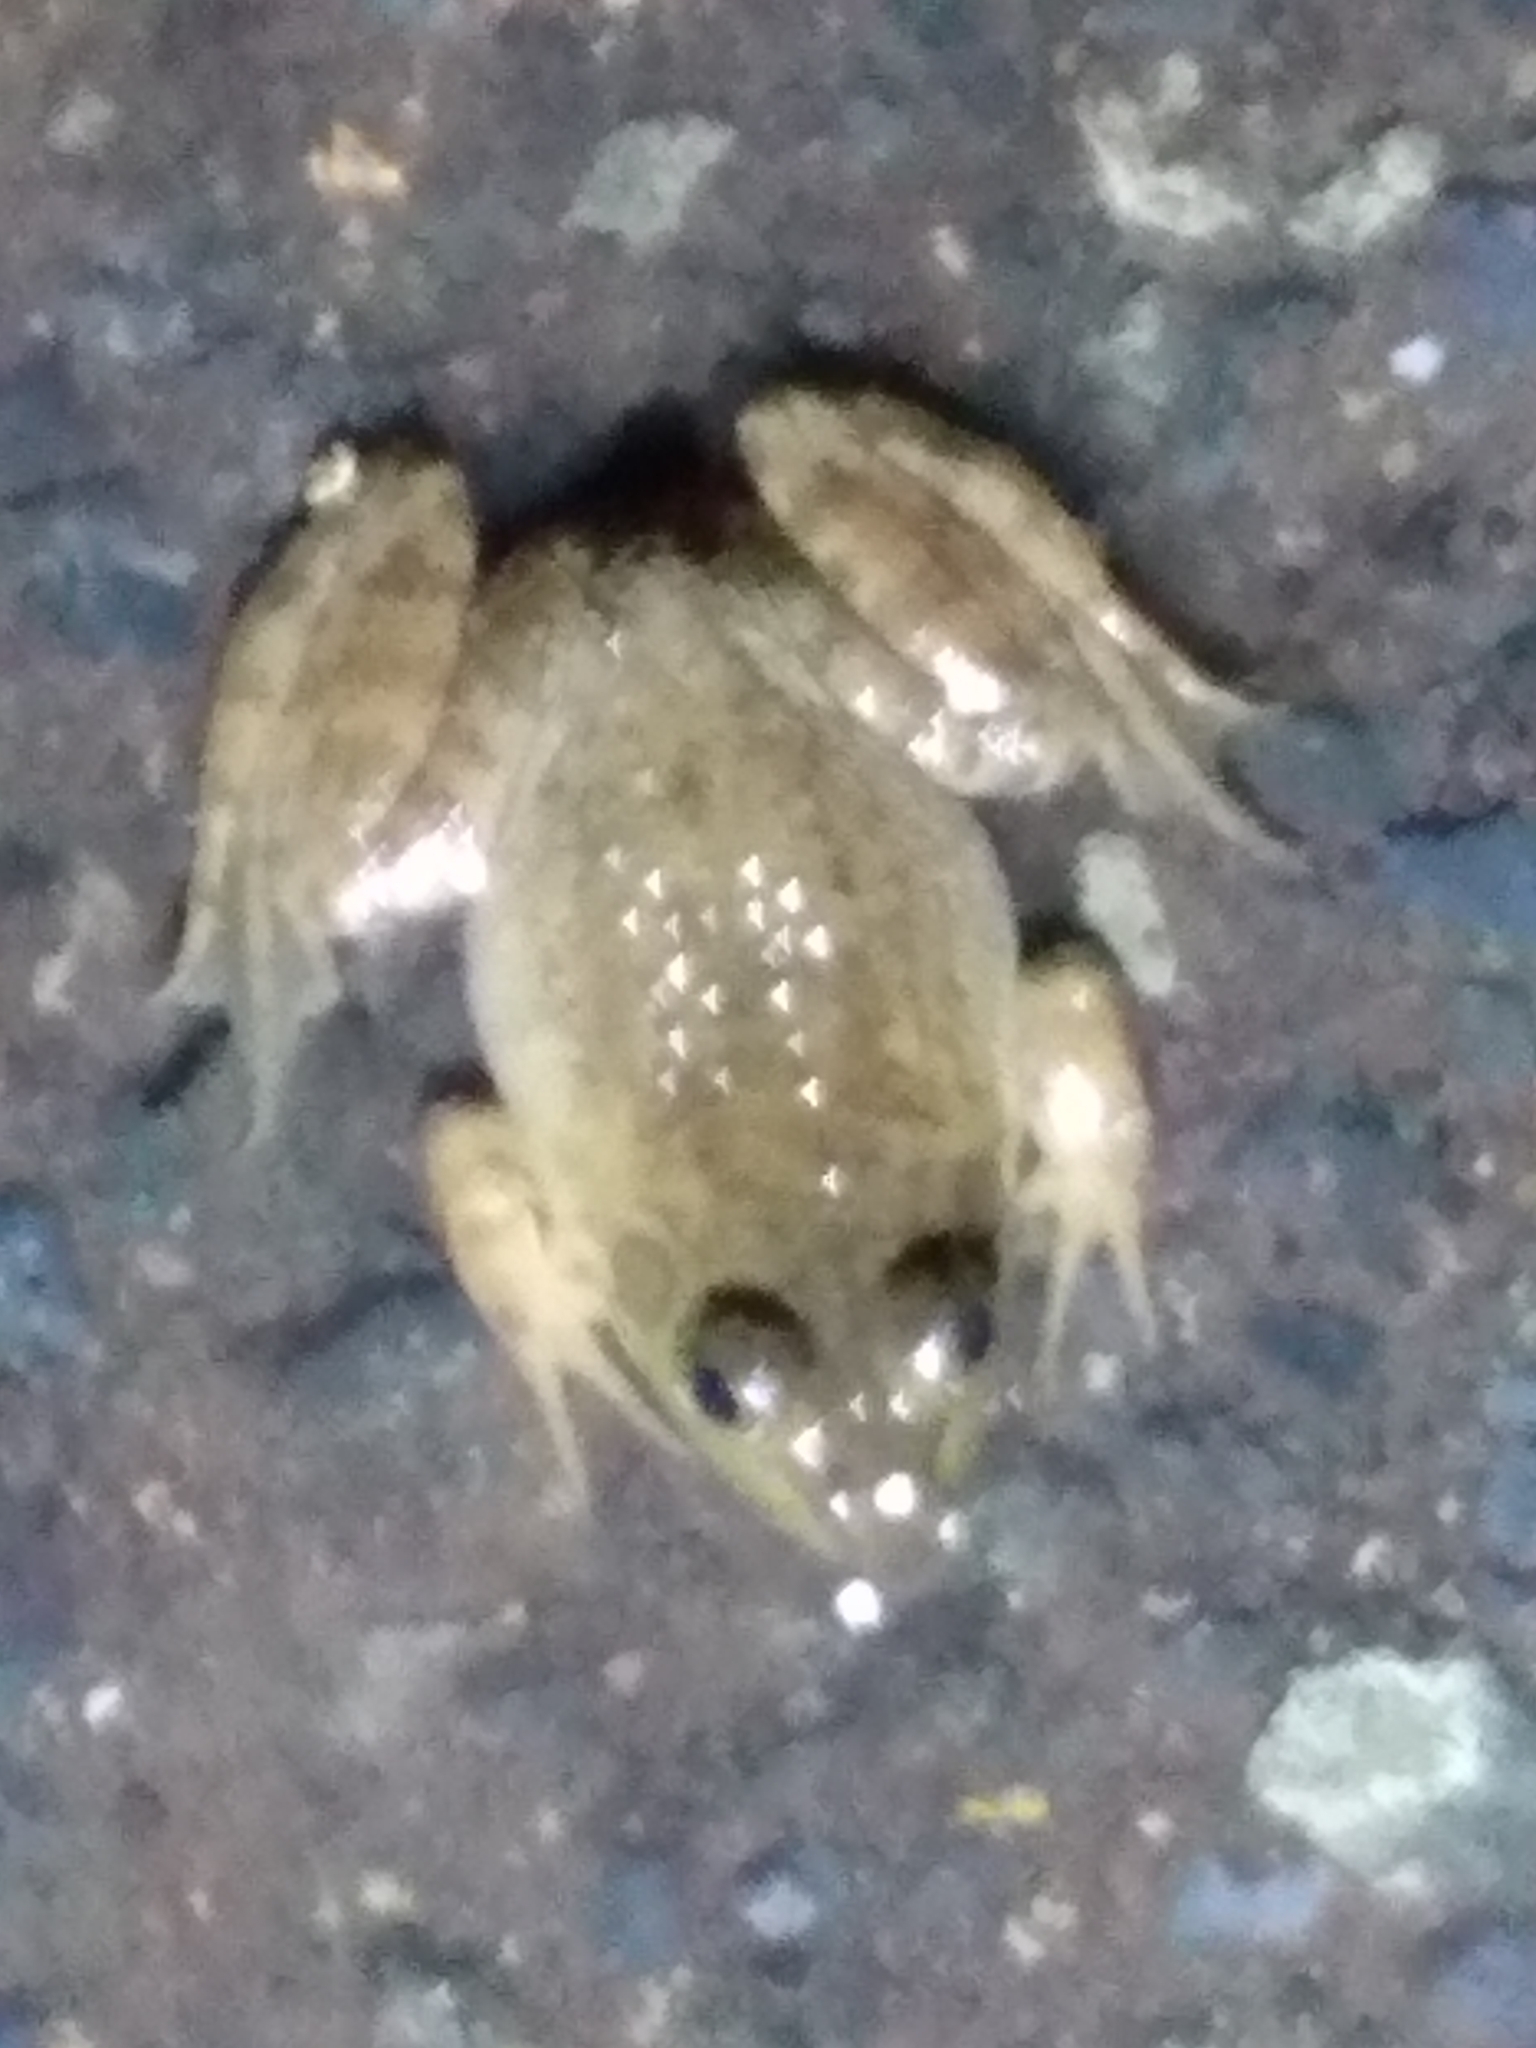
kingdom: Animalia
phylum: Chordata
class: Amphibia
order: Anura
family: Ranidae
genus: Lithobates
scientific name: Lithobates catesbeianus
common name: American bullfrog
